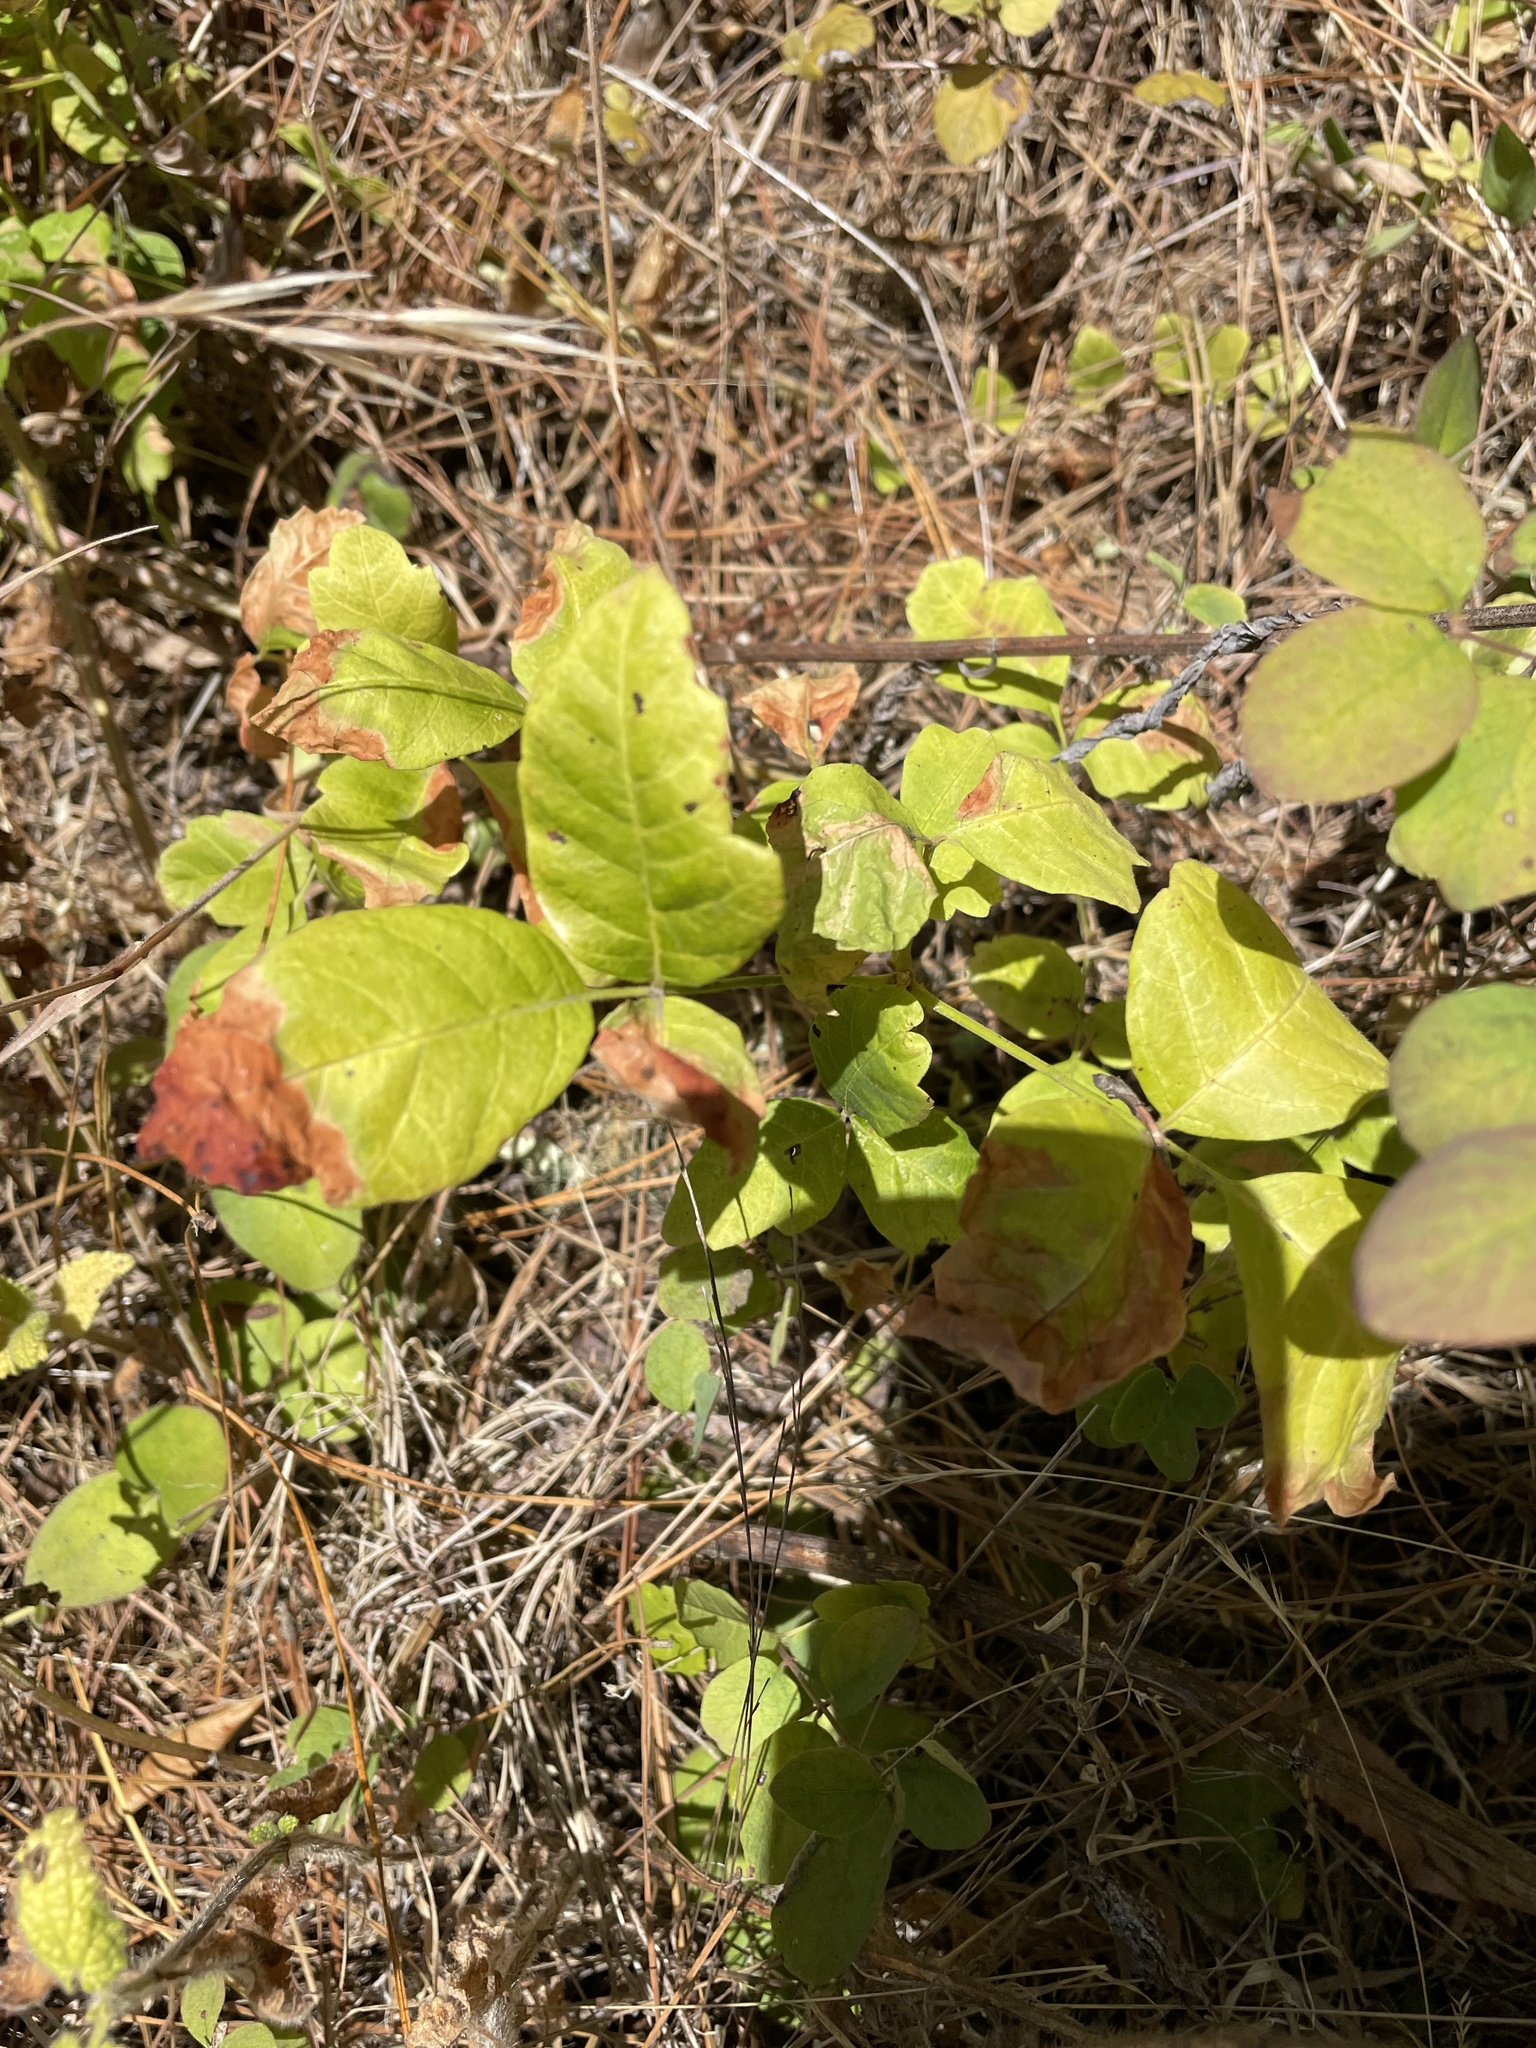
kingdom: Plantae
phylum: Tracheophyta
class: Magnoliopsida
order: Sapindales
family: Anacardiaceae
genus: Toxicodendron
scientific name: Toxicodendron diversilobum
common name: Pacific poison-oak
